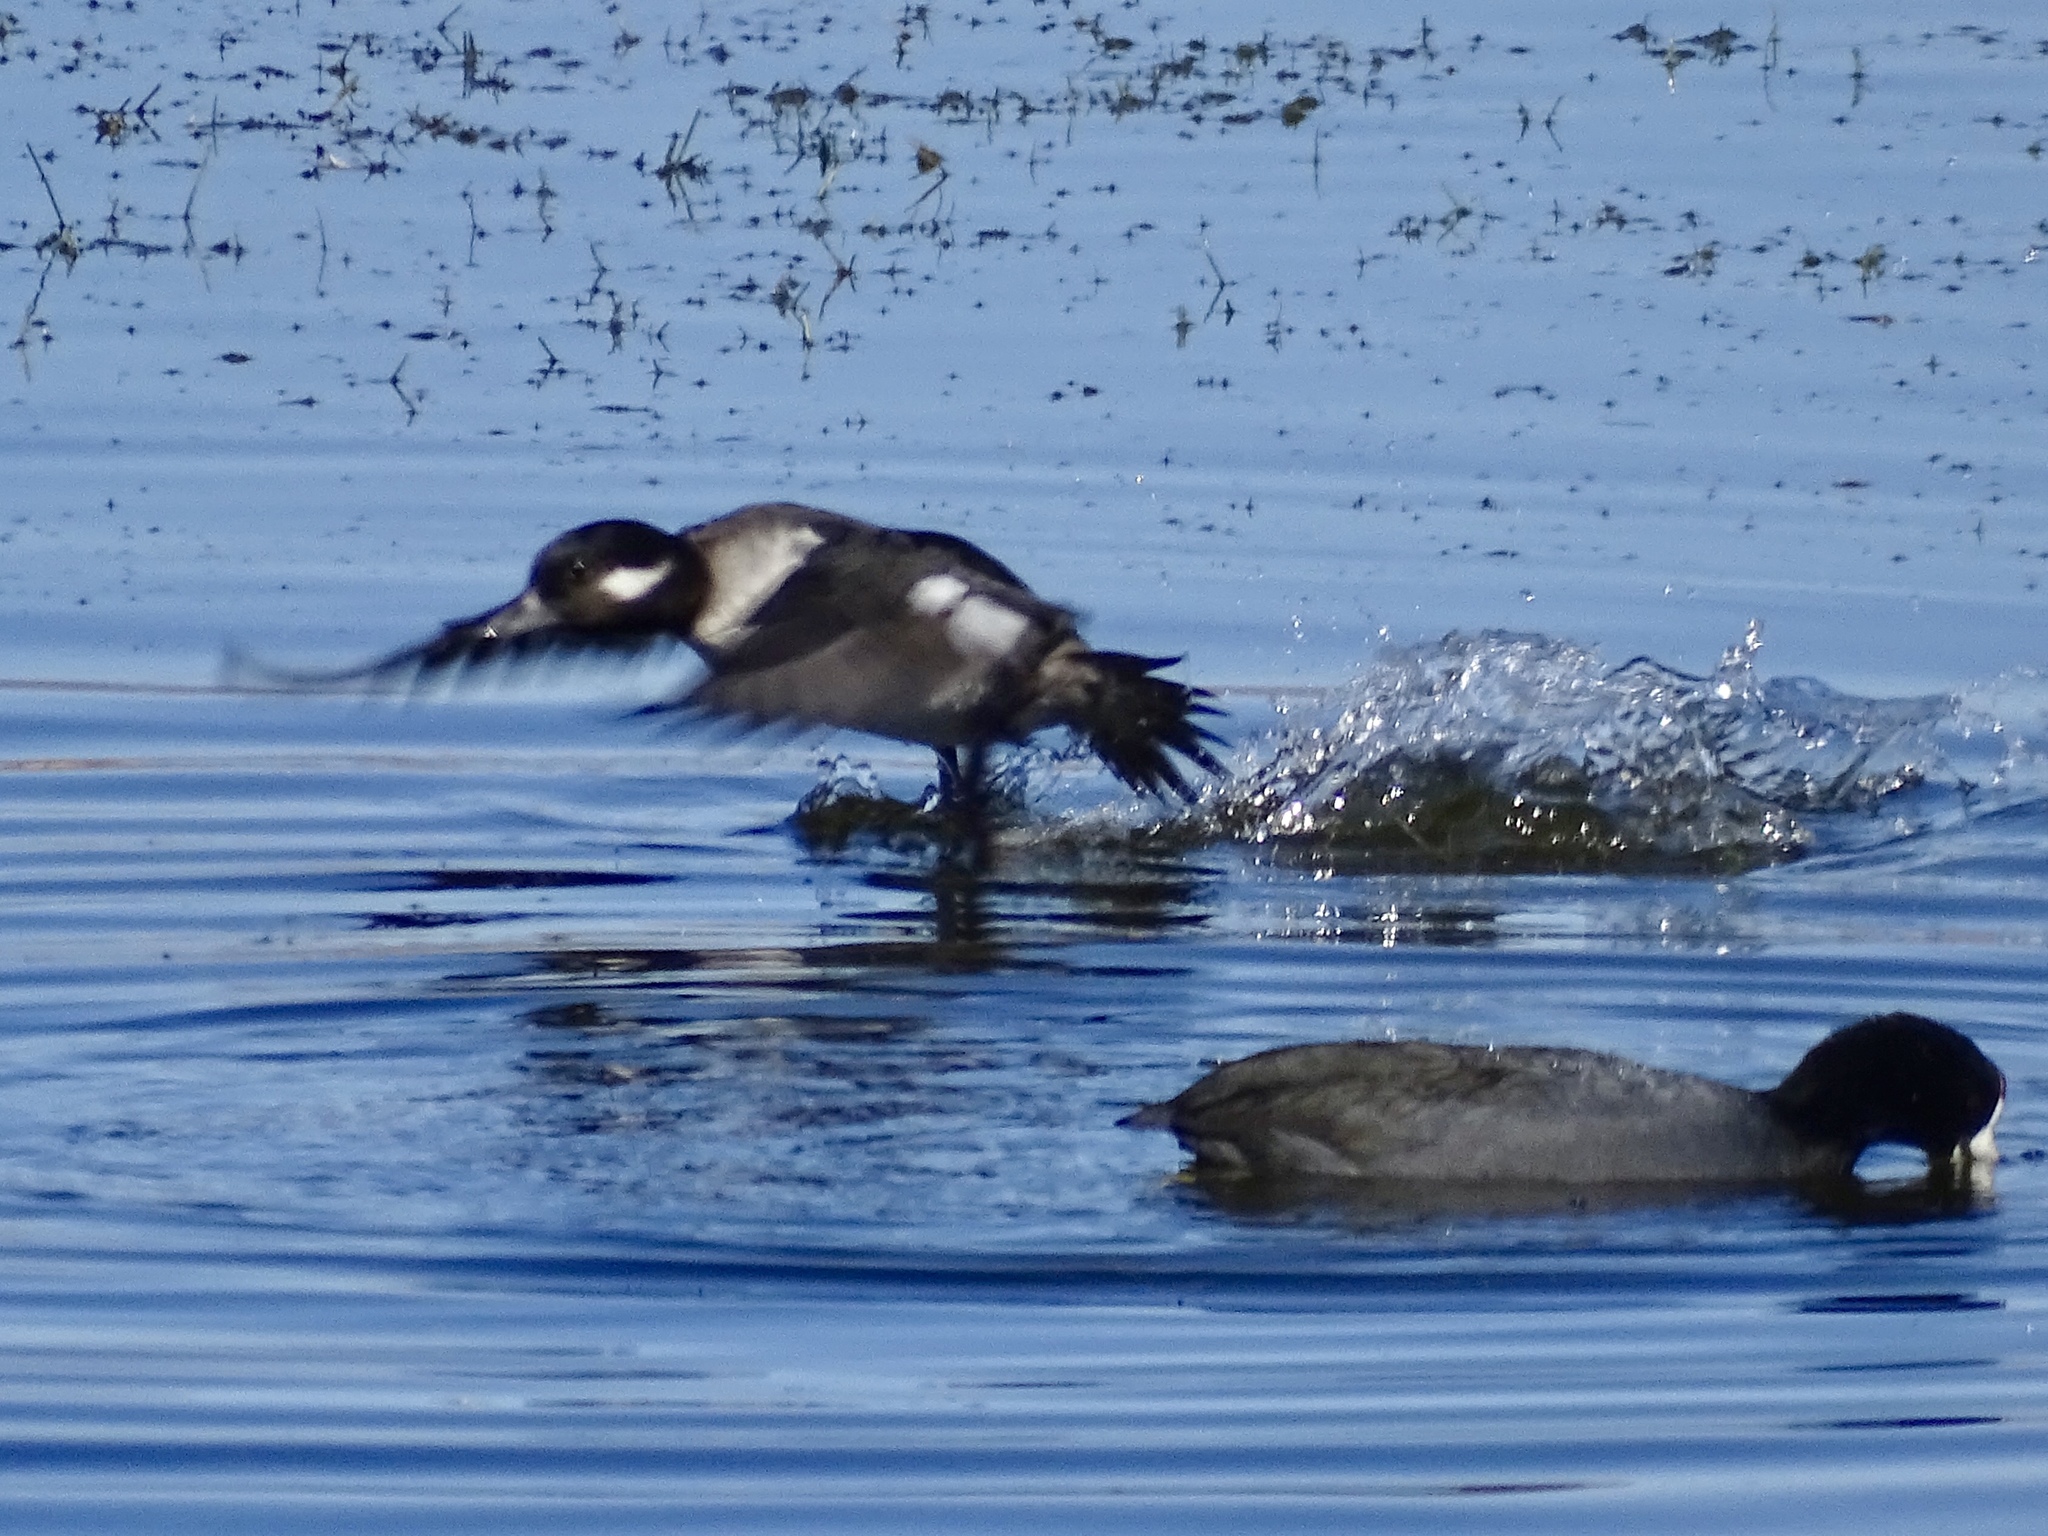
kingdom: Animalia
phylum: Chordata
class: Aves
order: Anseriformes
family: Anatidae
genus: Bucephala
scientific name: Bucephala albeola
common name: Bufflehead
